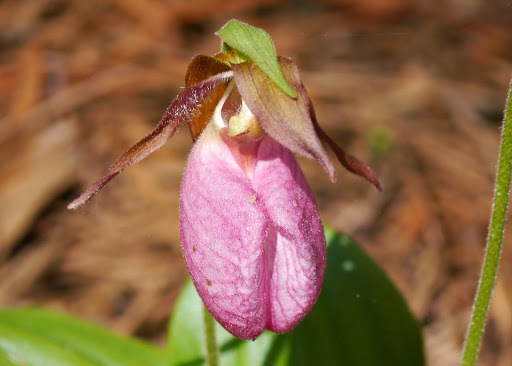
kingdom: Plantae
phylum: Tracheophyta
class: Liliopsida
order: Asparagales
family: Orchidaceae
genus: Cypripedium
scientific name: Cypripedium acaule
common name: Pink lady's-slipper
